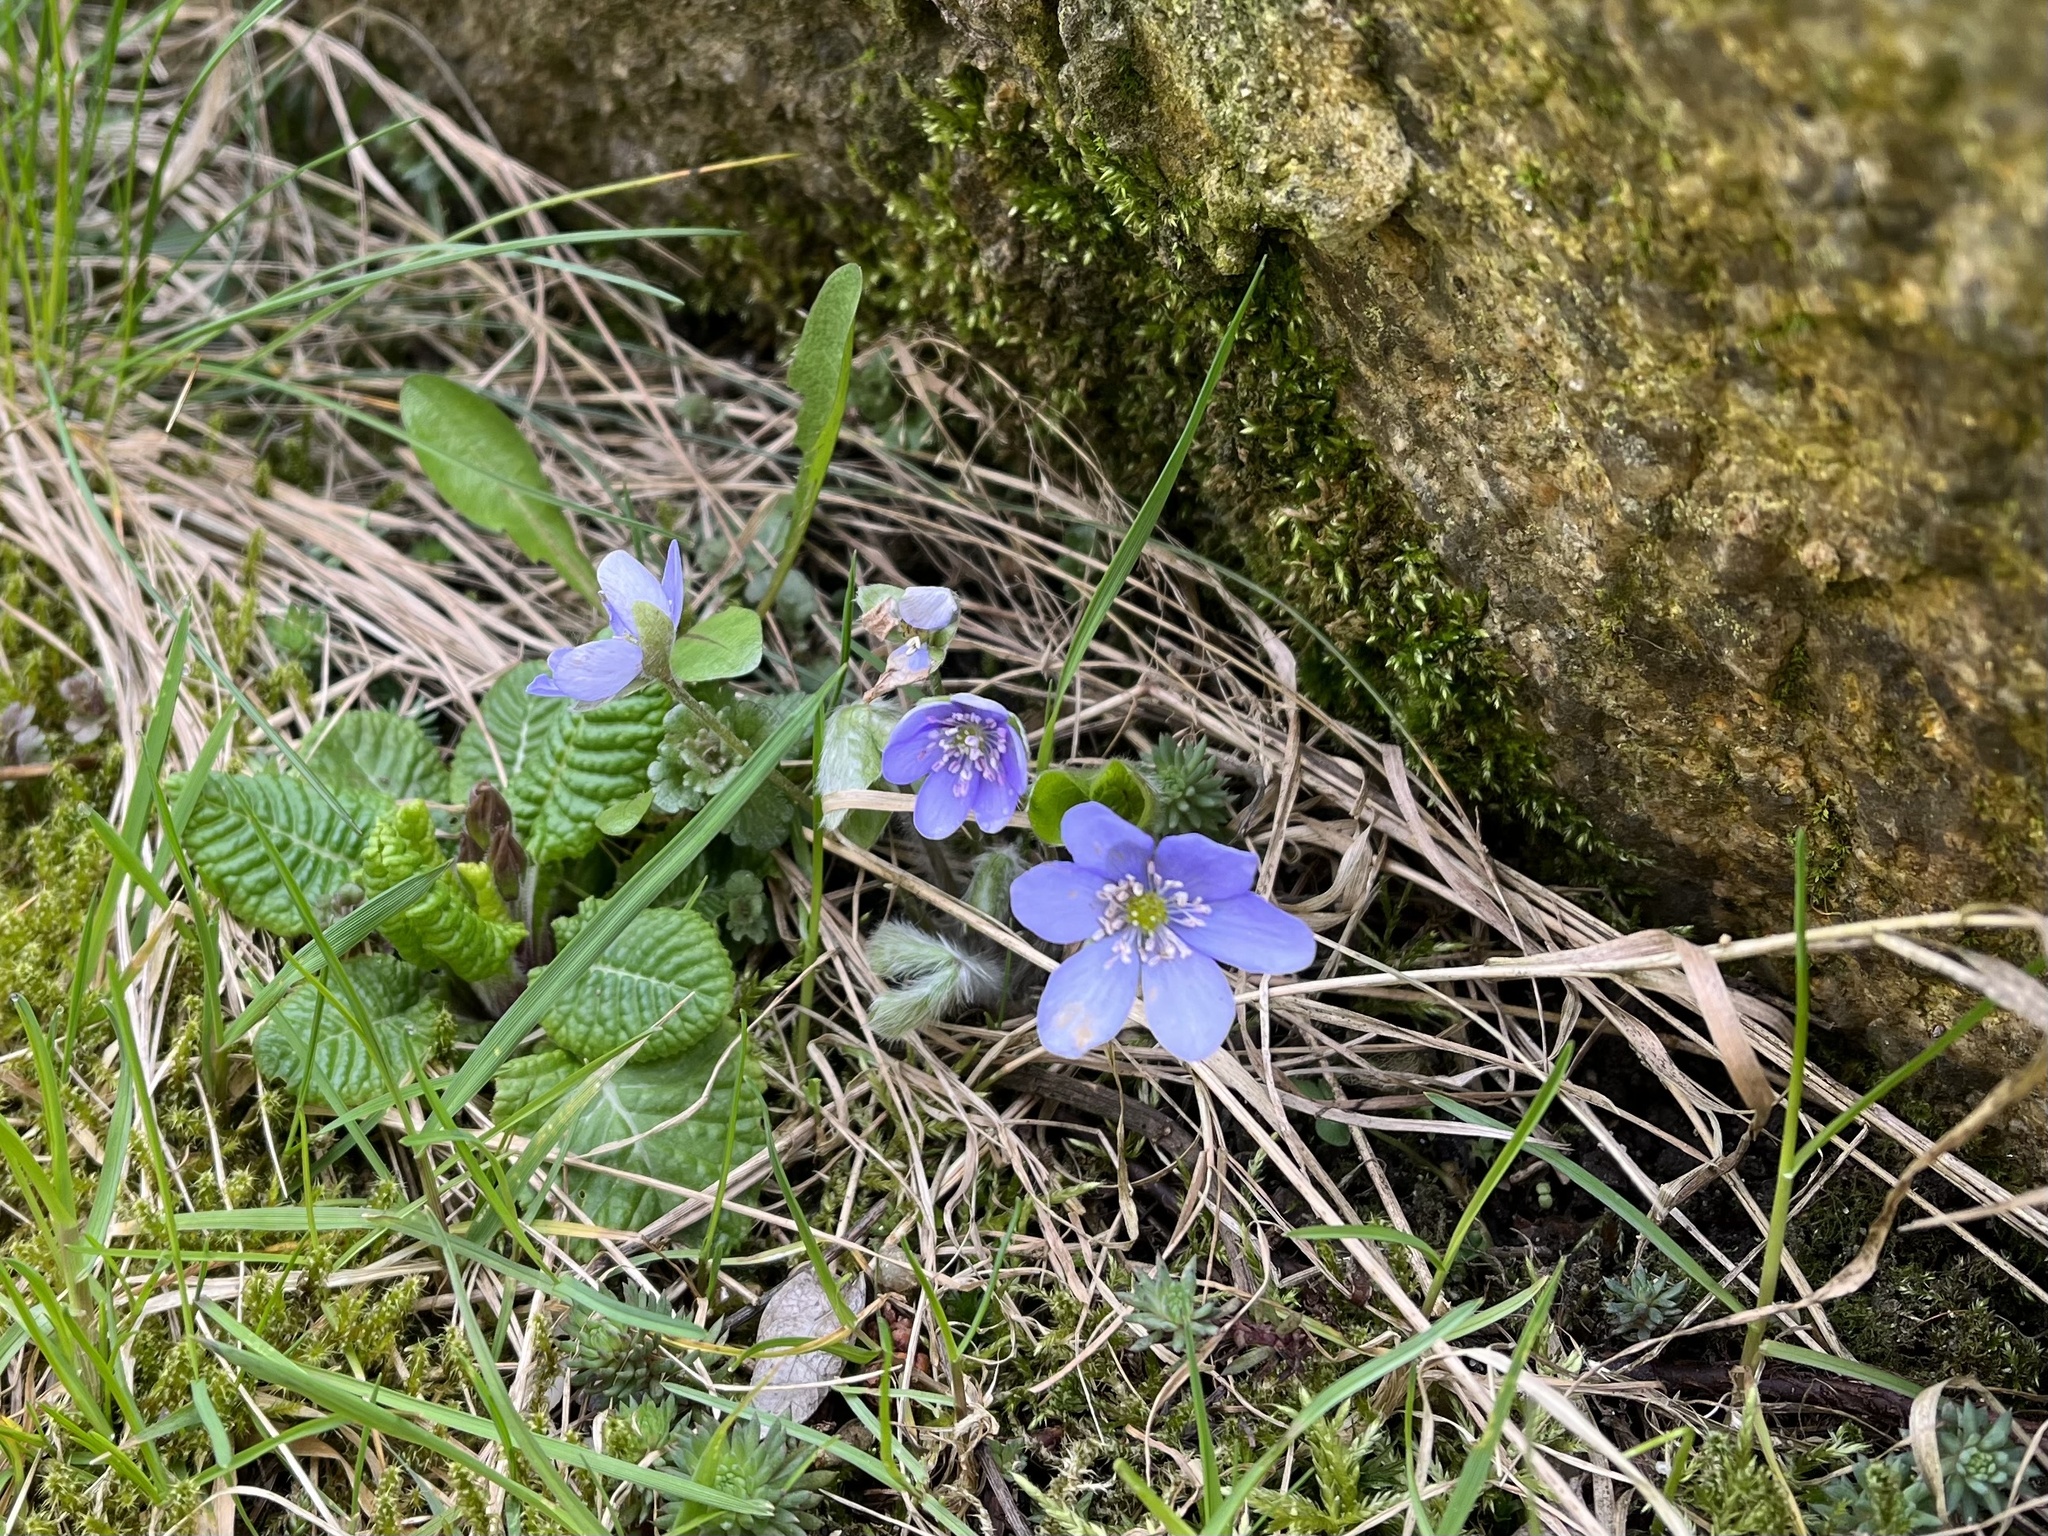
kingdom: Plantae
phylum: Tracheophyta
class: Magnoliopsida
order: Ranunculales
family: Ranunculaceae
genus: Hepatica
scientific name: Hepatica nobilis
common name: Liverleaf
